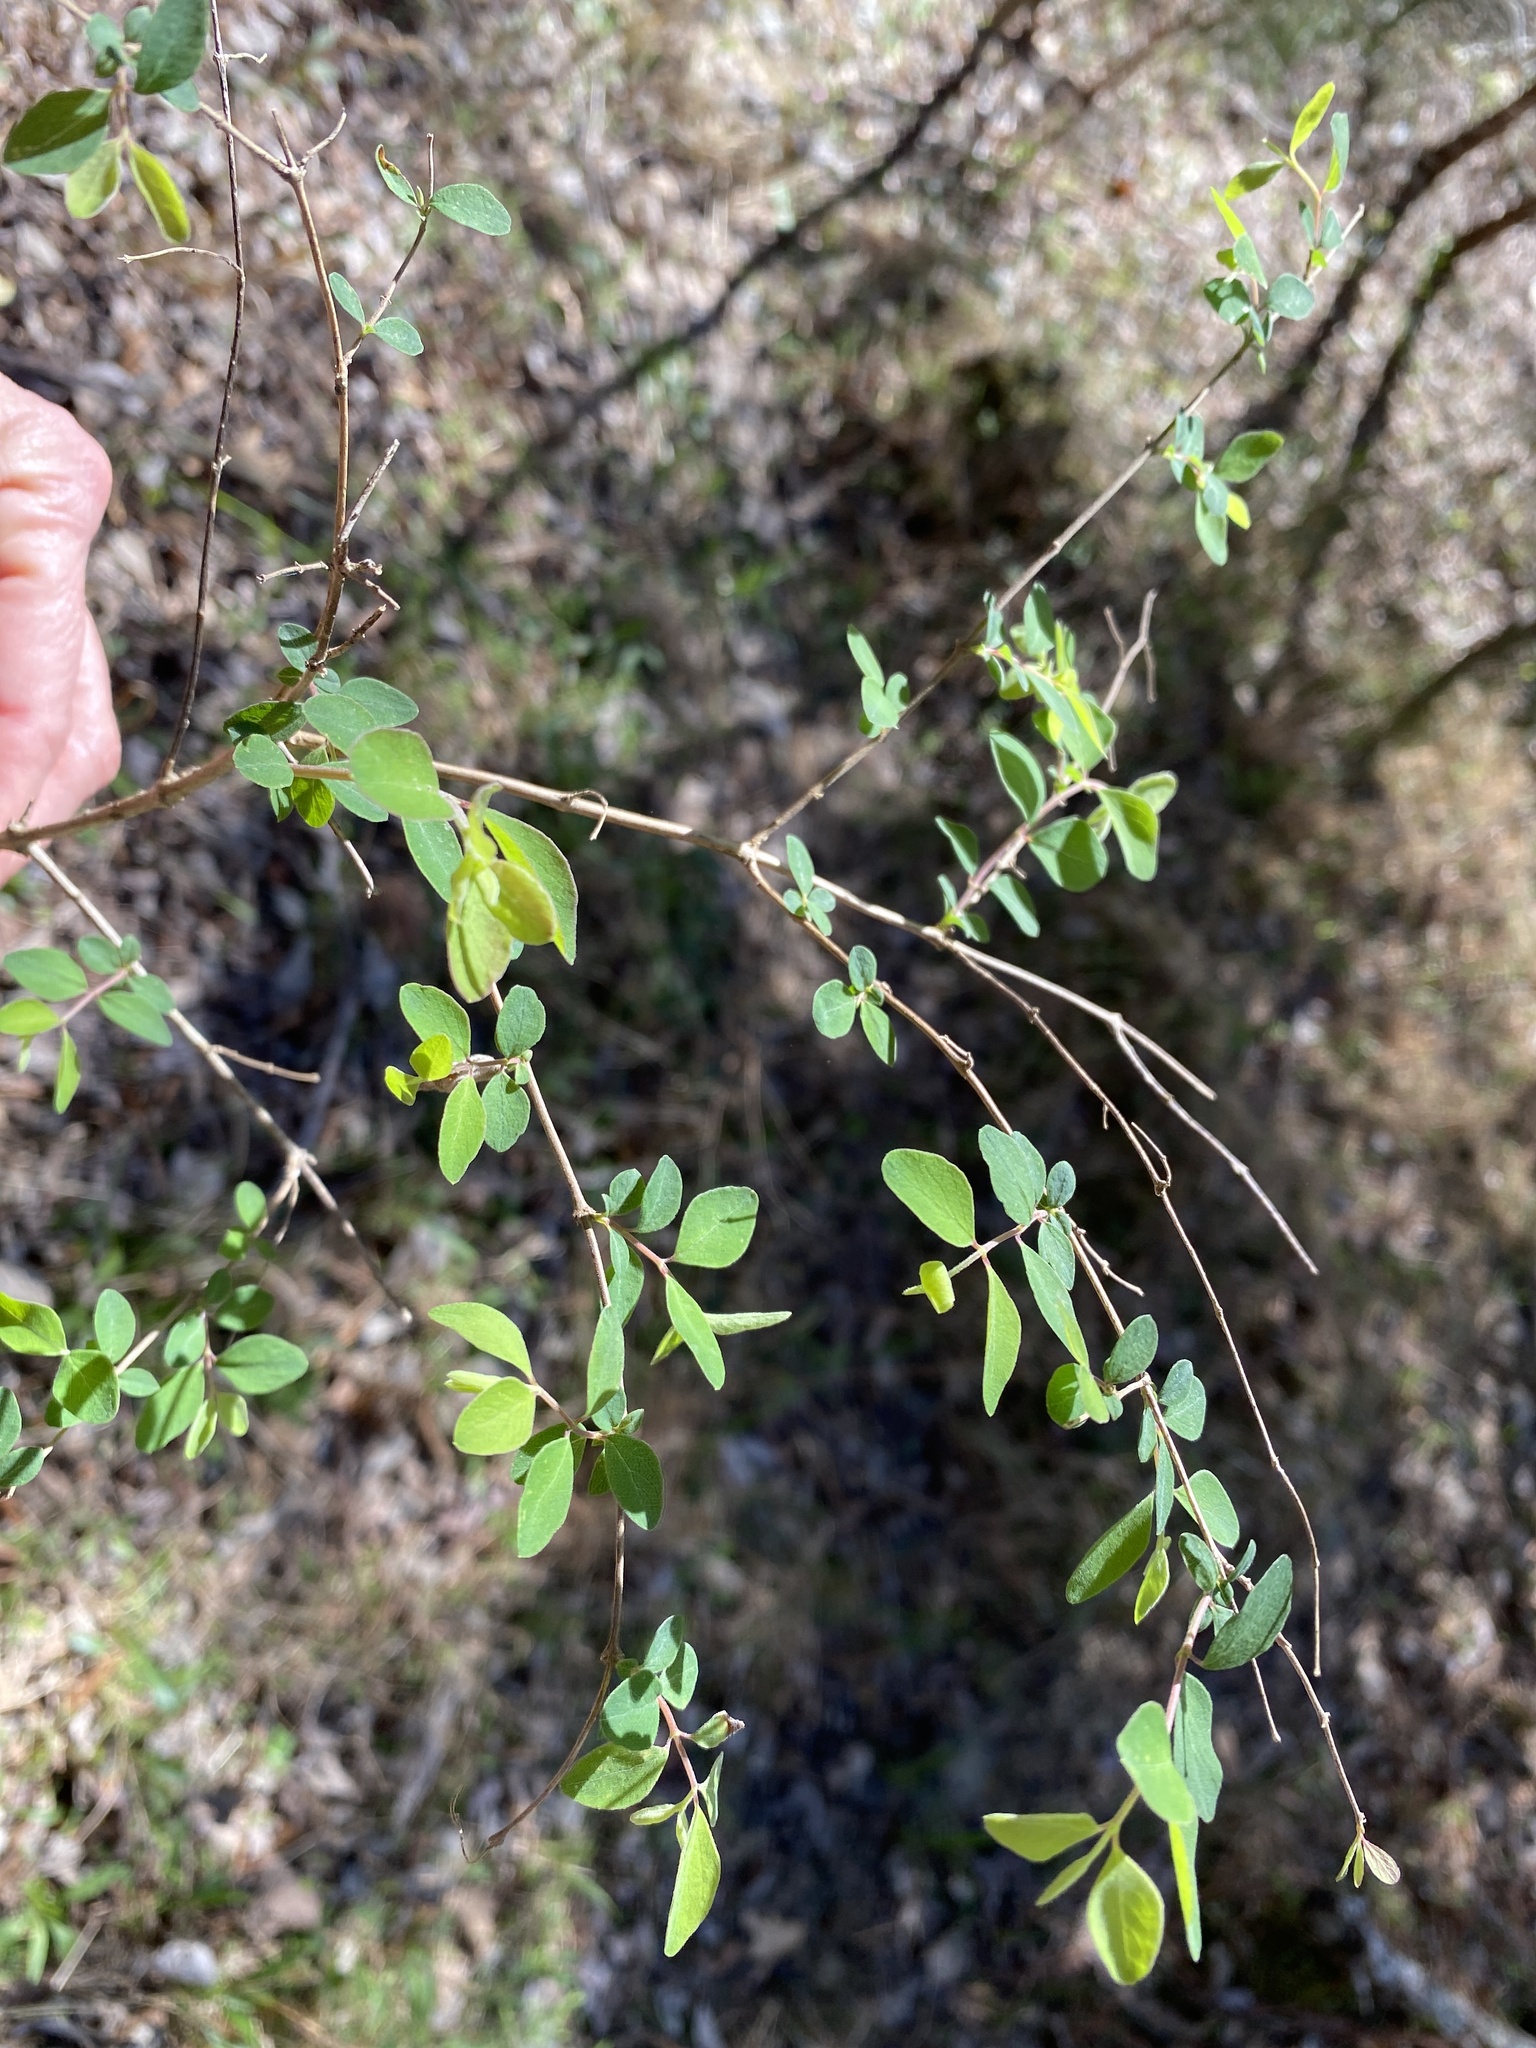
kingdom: Plantae
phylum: Tracheophyta
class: Magnoliopsida
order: Dipsacales
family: Caprifoliaceae
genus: Symphoricarpos
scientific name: Symphoricarpos orbiculatus
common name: Coralberry
